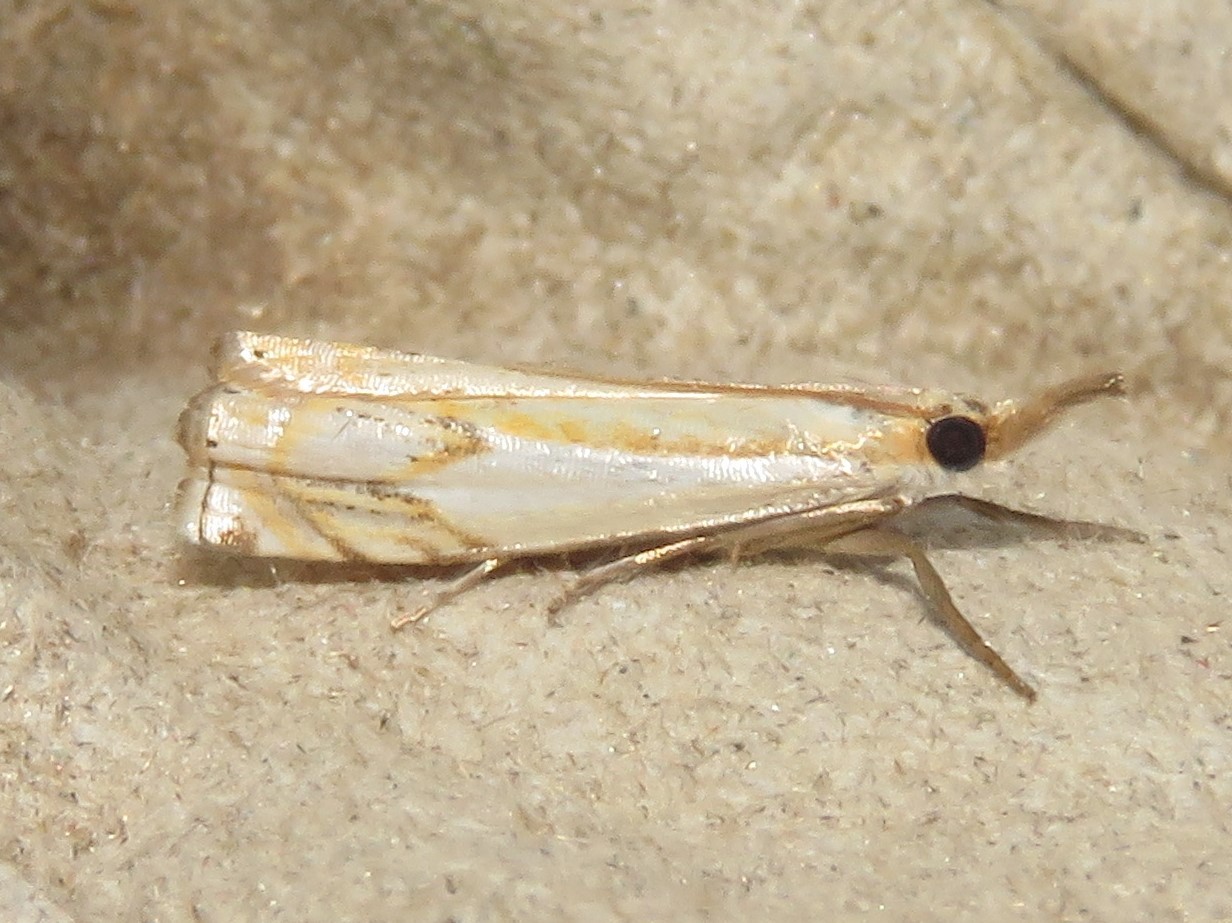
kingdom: Animalia
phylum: Arthropoda
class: Insecta
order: Lepidoptera
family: Crambidae
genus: Crambus
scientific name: Crambus agitatellus
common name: Double-banded grass-veneer
